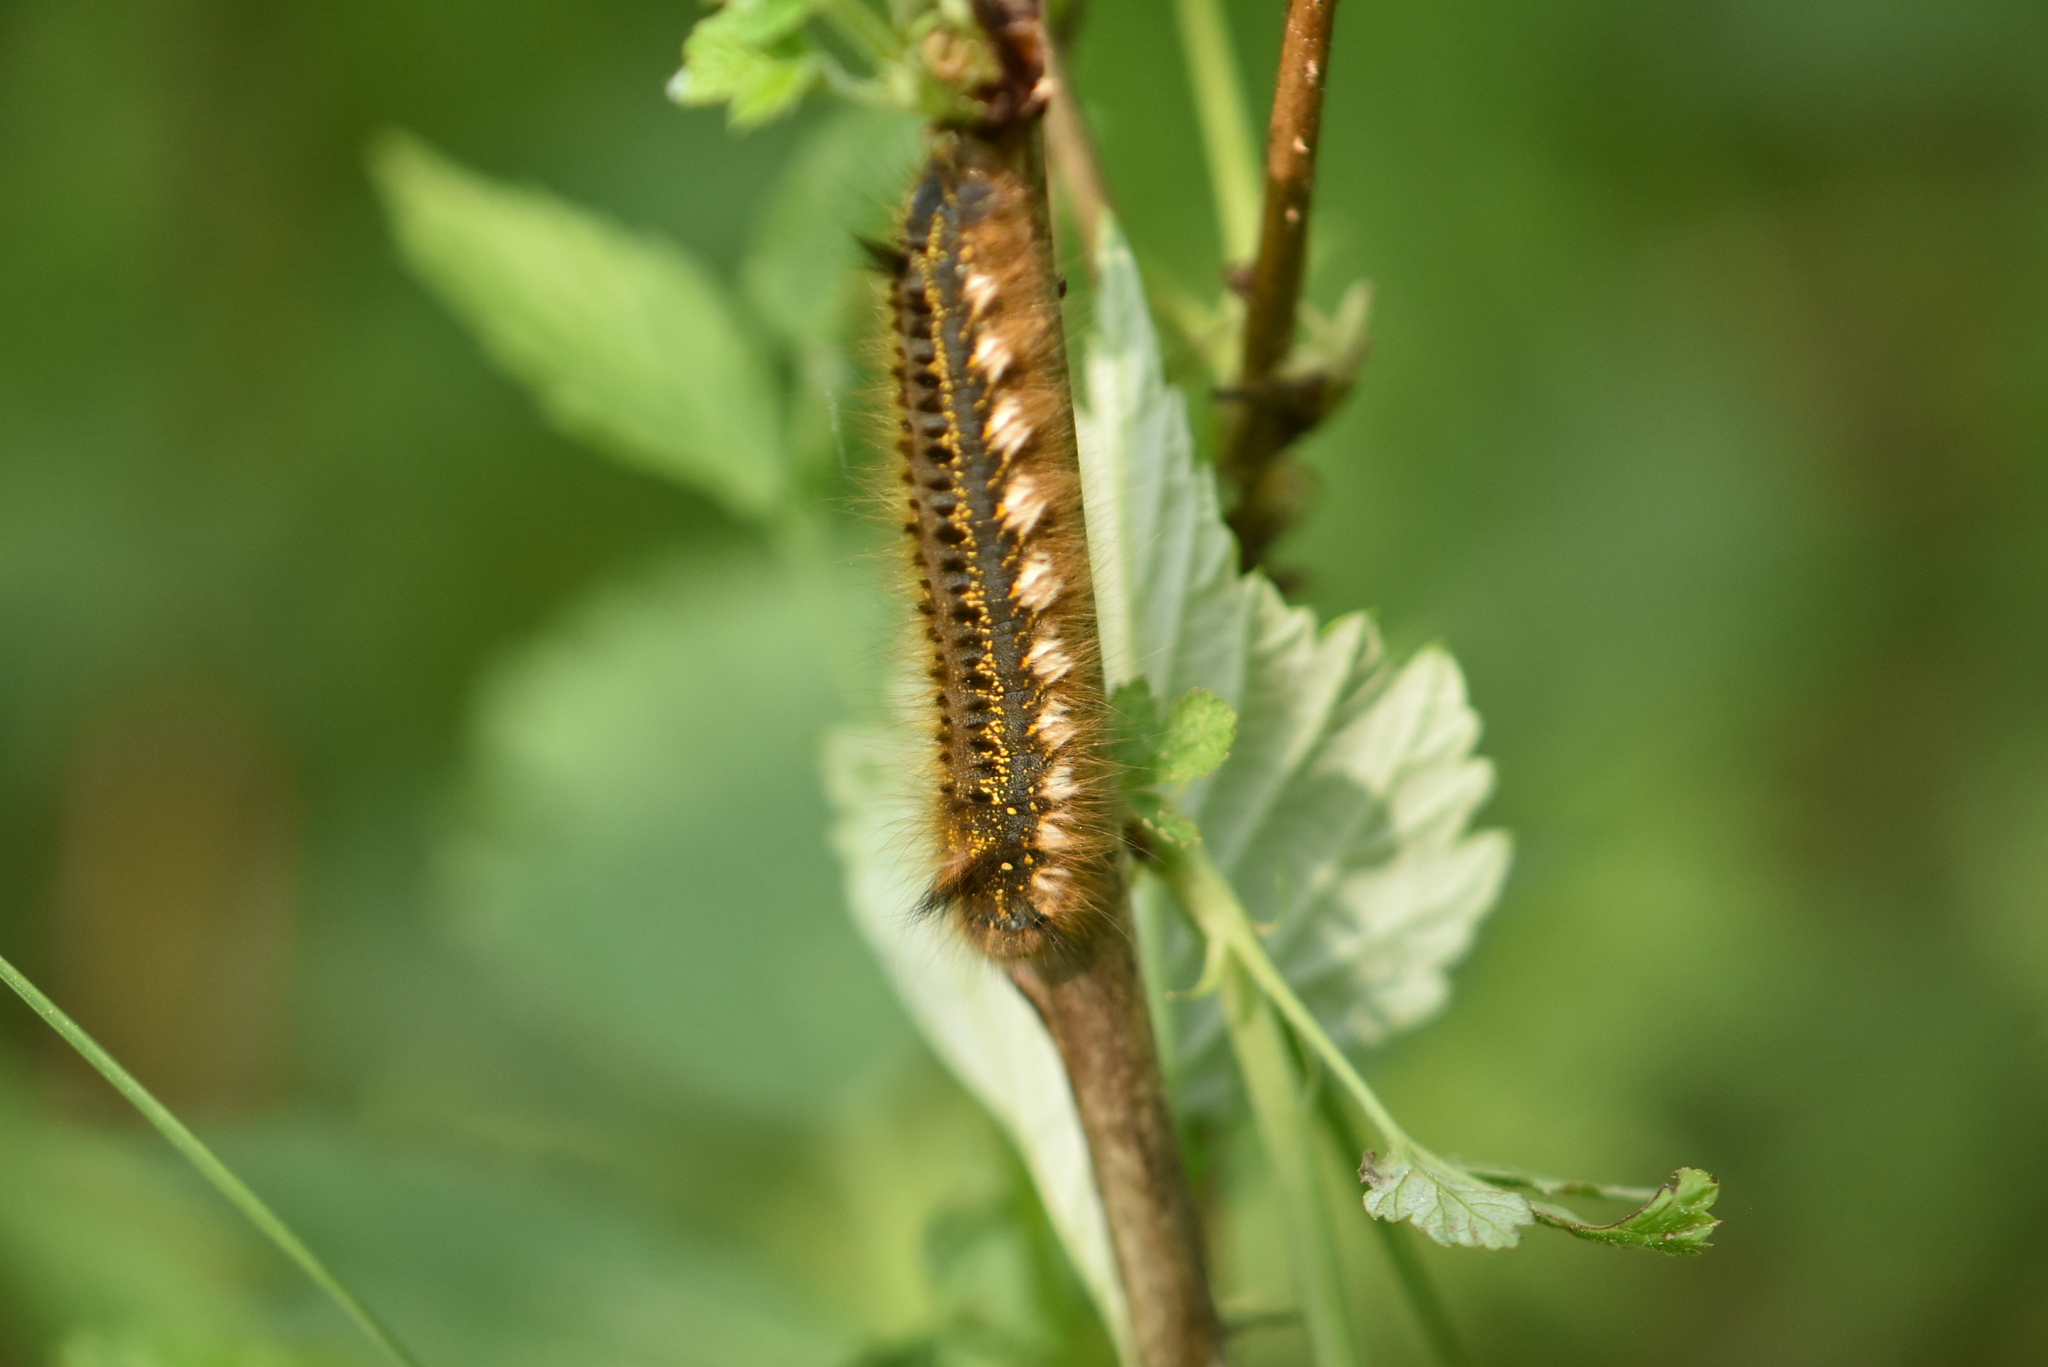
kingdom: Animalia
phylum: Arthropoda
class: Insecta
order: Lepidoptera
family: Lasiocampidae
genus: Euthrix
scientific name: Euthrix potatoria
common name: Drinker
